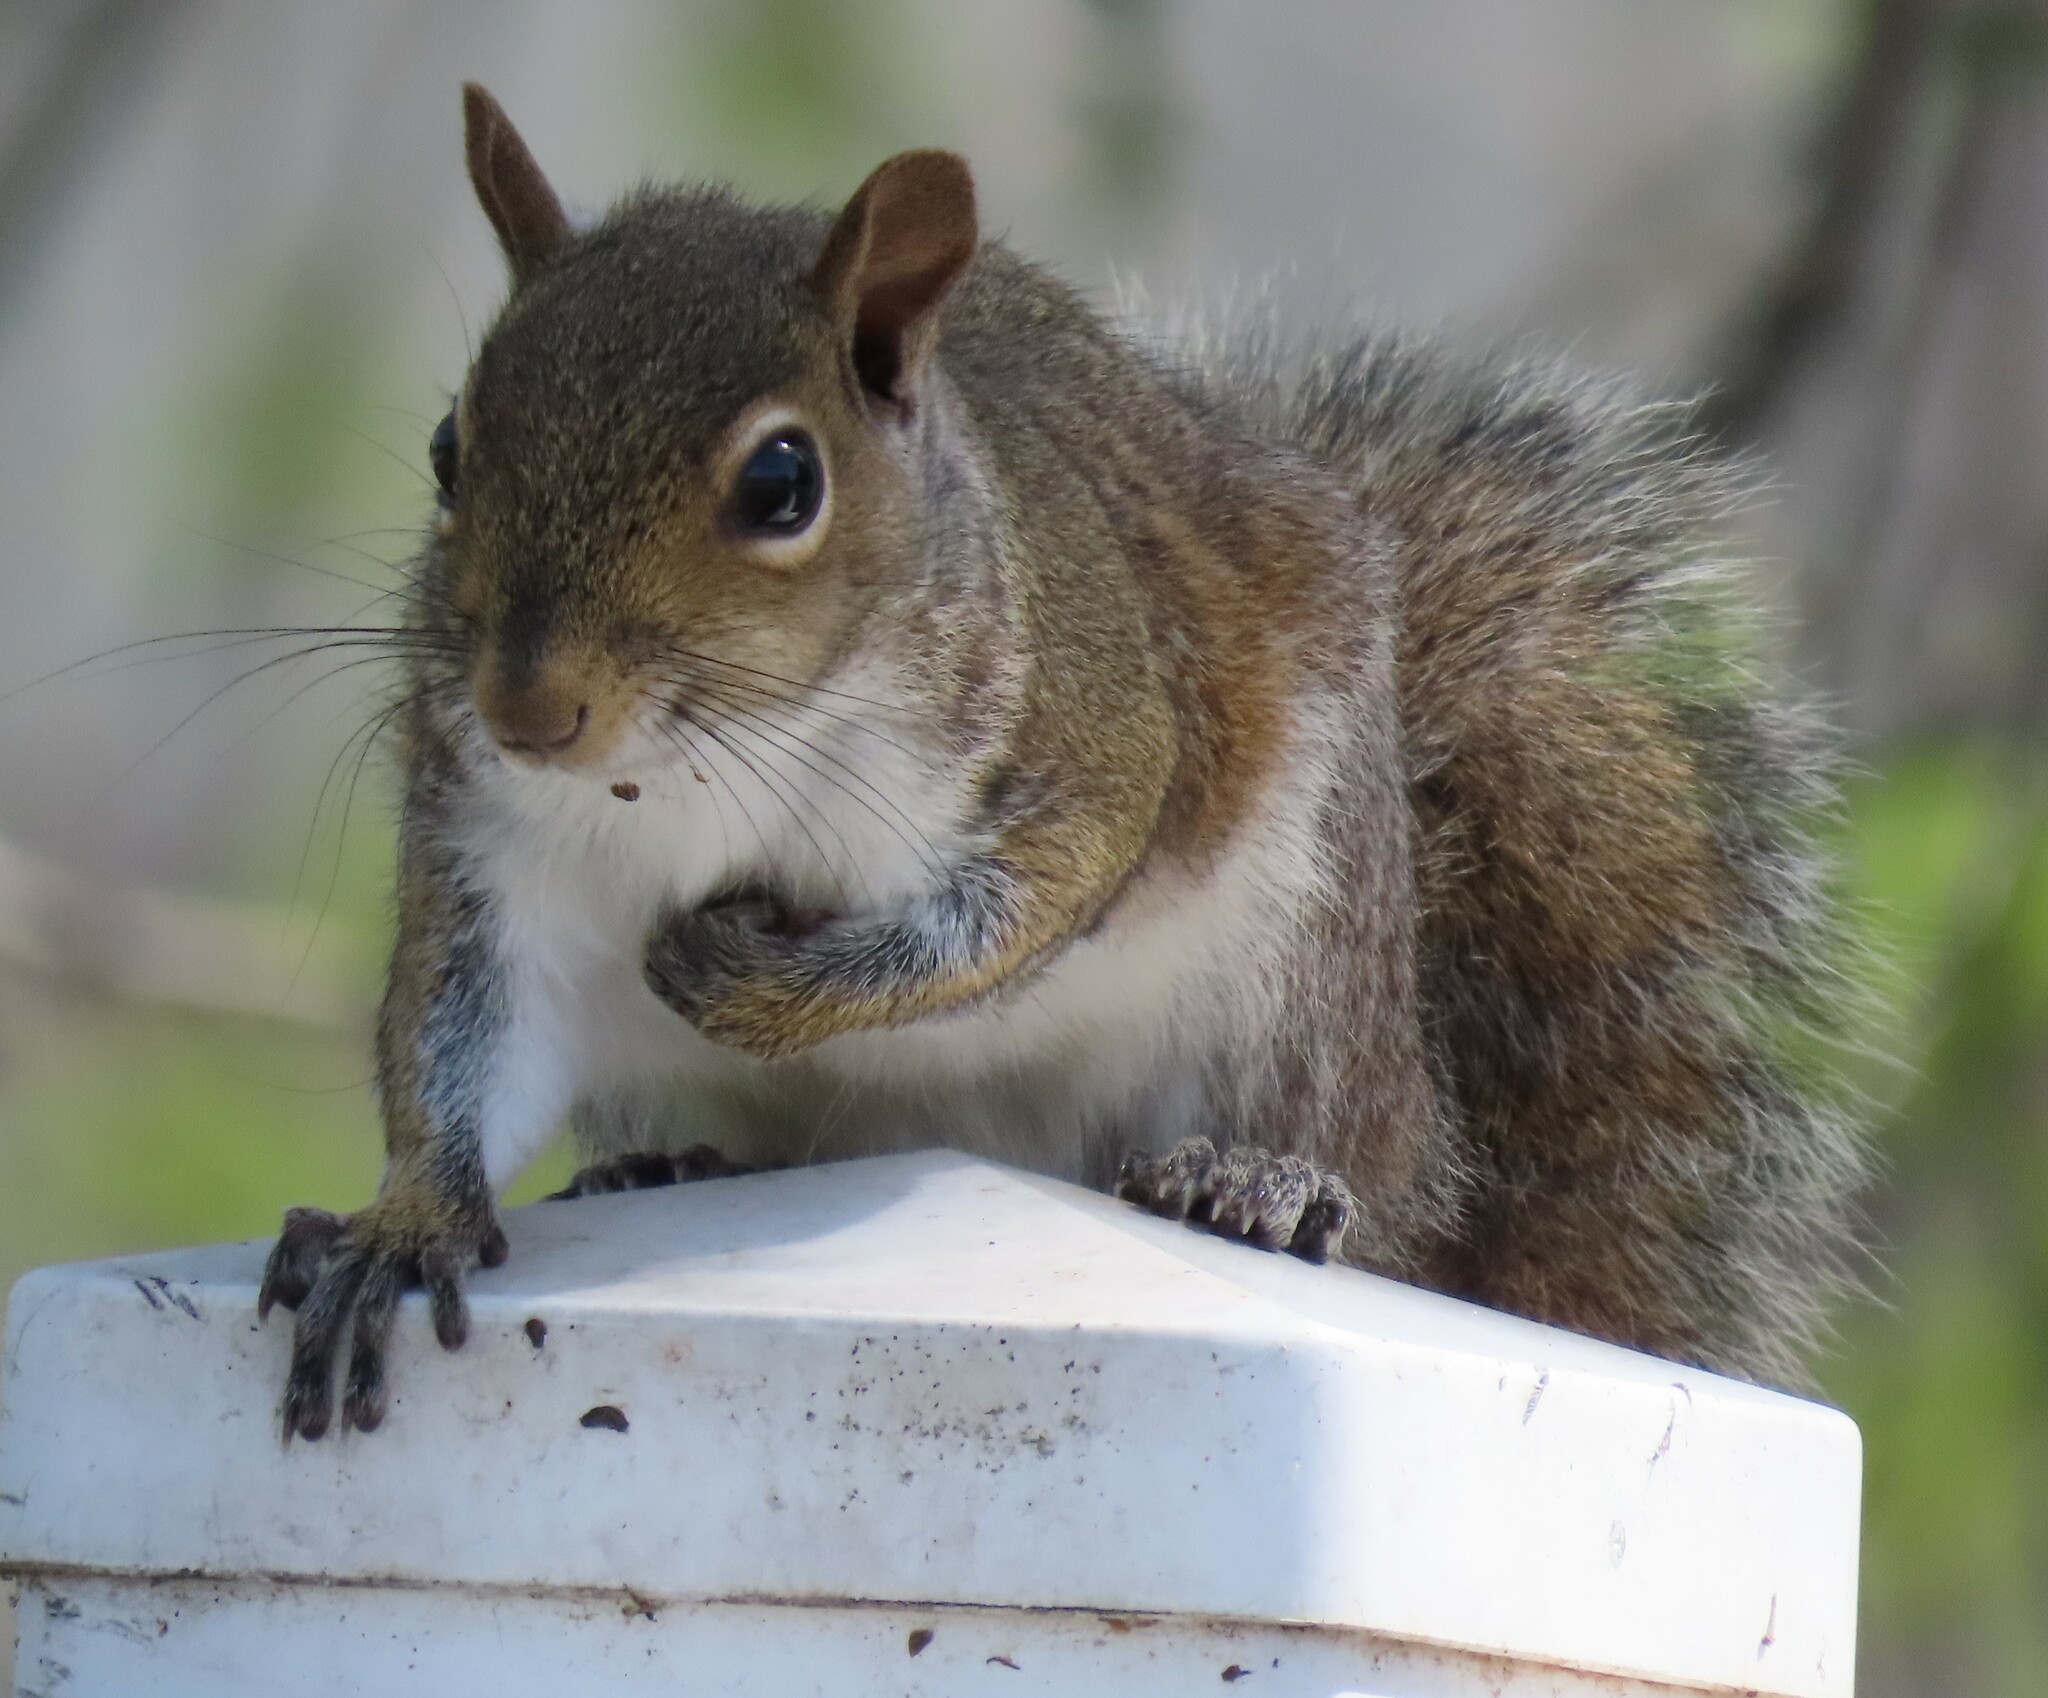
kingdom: Animalia
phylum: Chordata
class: Mammalia
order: Rodentia
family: Sciuridae
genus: Sciurus
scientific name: Sciurus carolinensis
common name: Eastern gray squirrel
